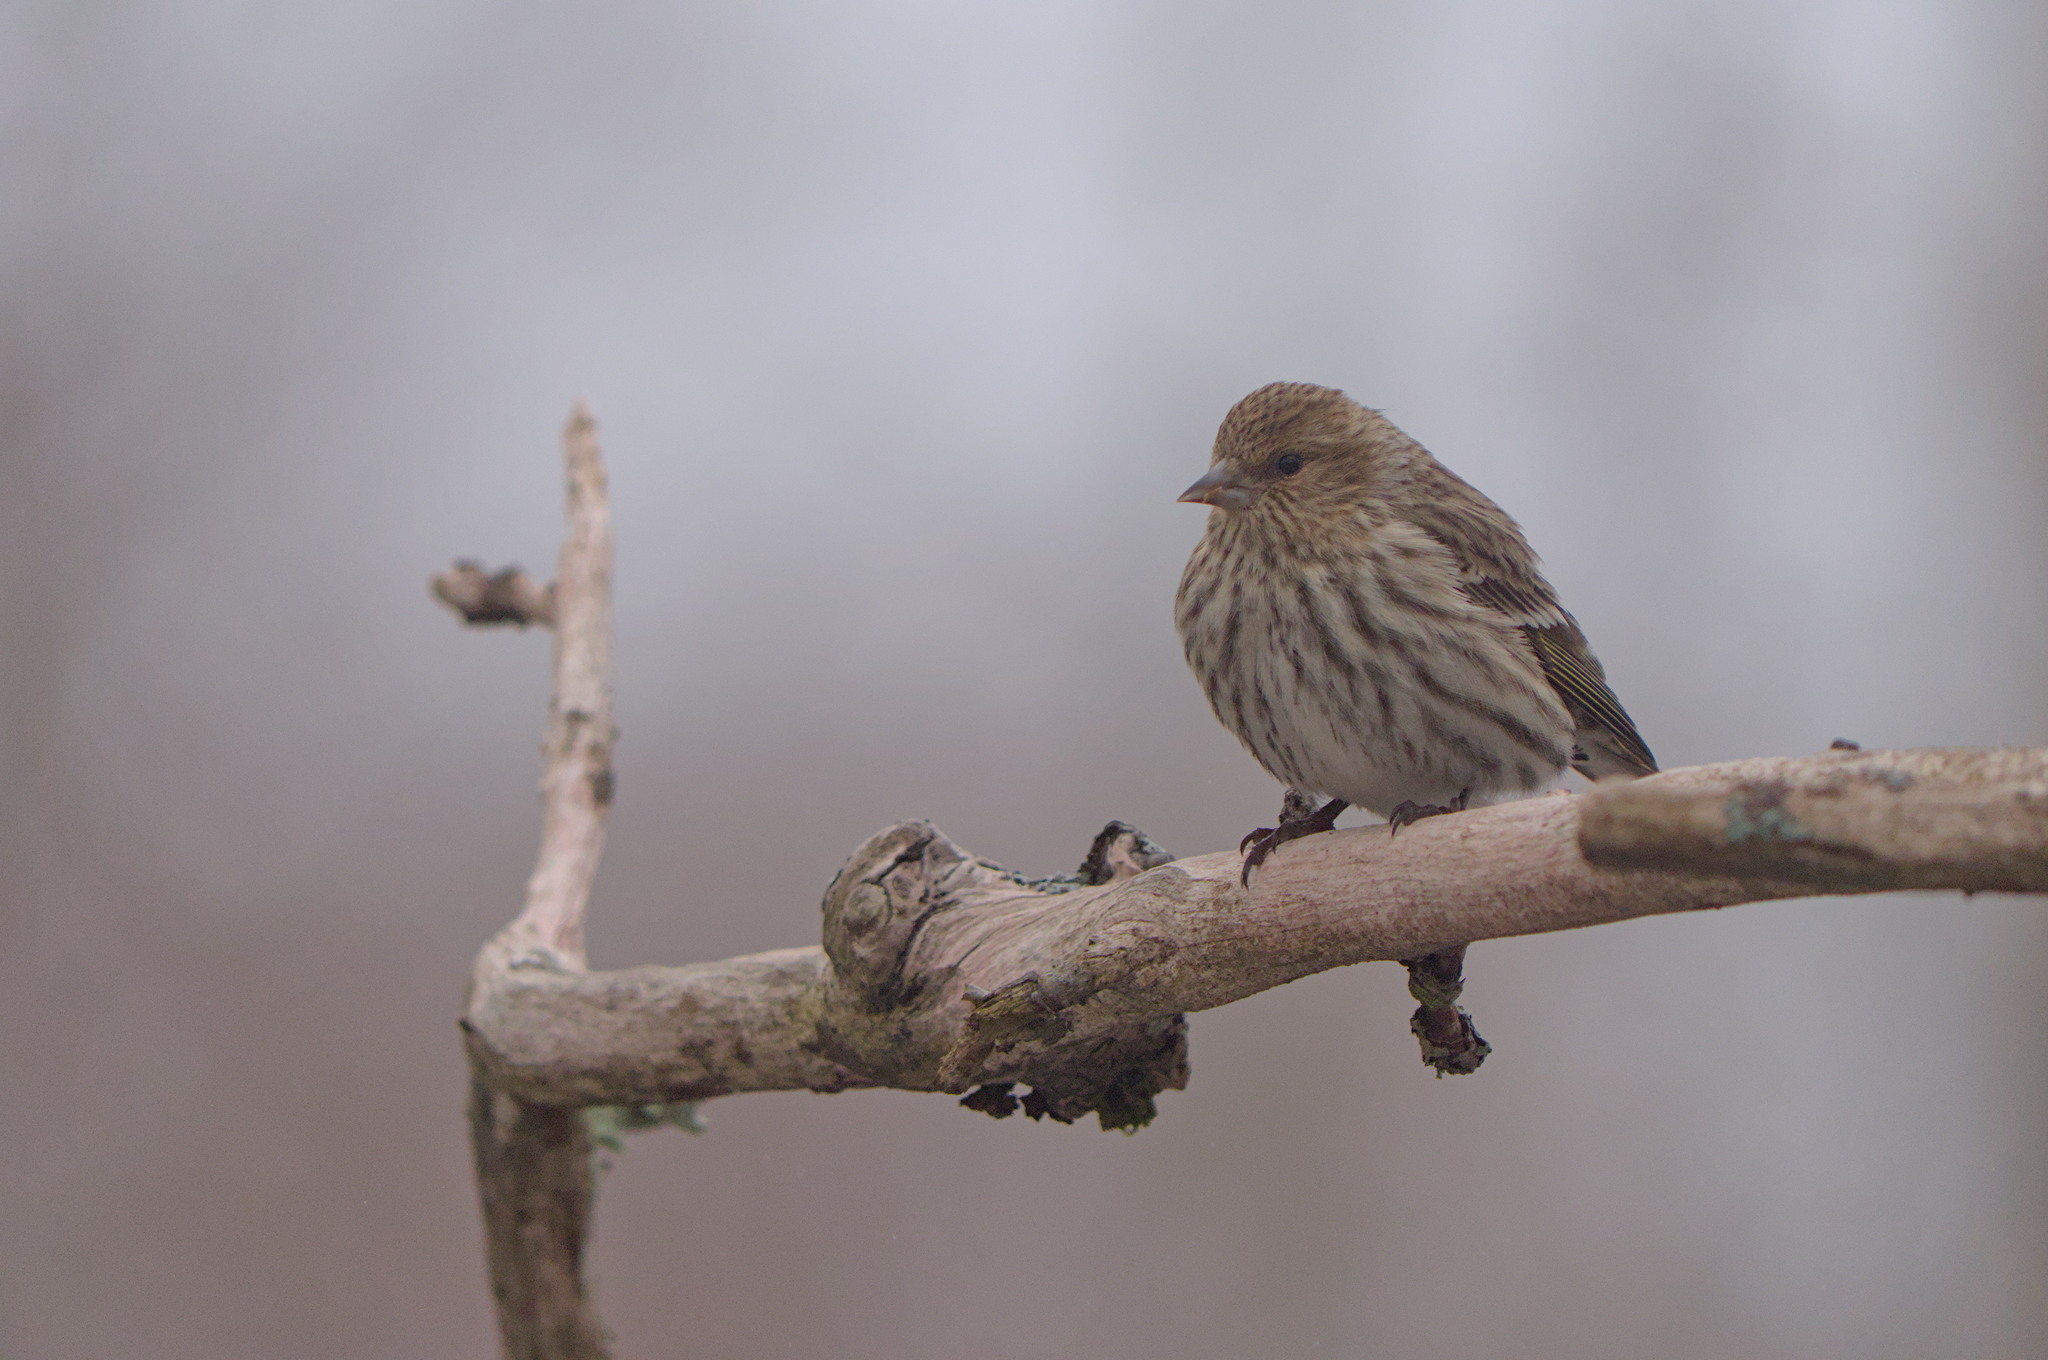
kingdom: Animalia
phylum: Chordata
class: Aves
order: Passeriformes
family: Fringillidae
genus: Spinus
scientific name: Spinus pinus
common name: Pine siskin
